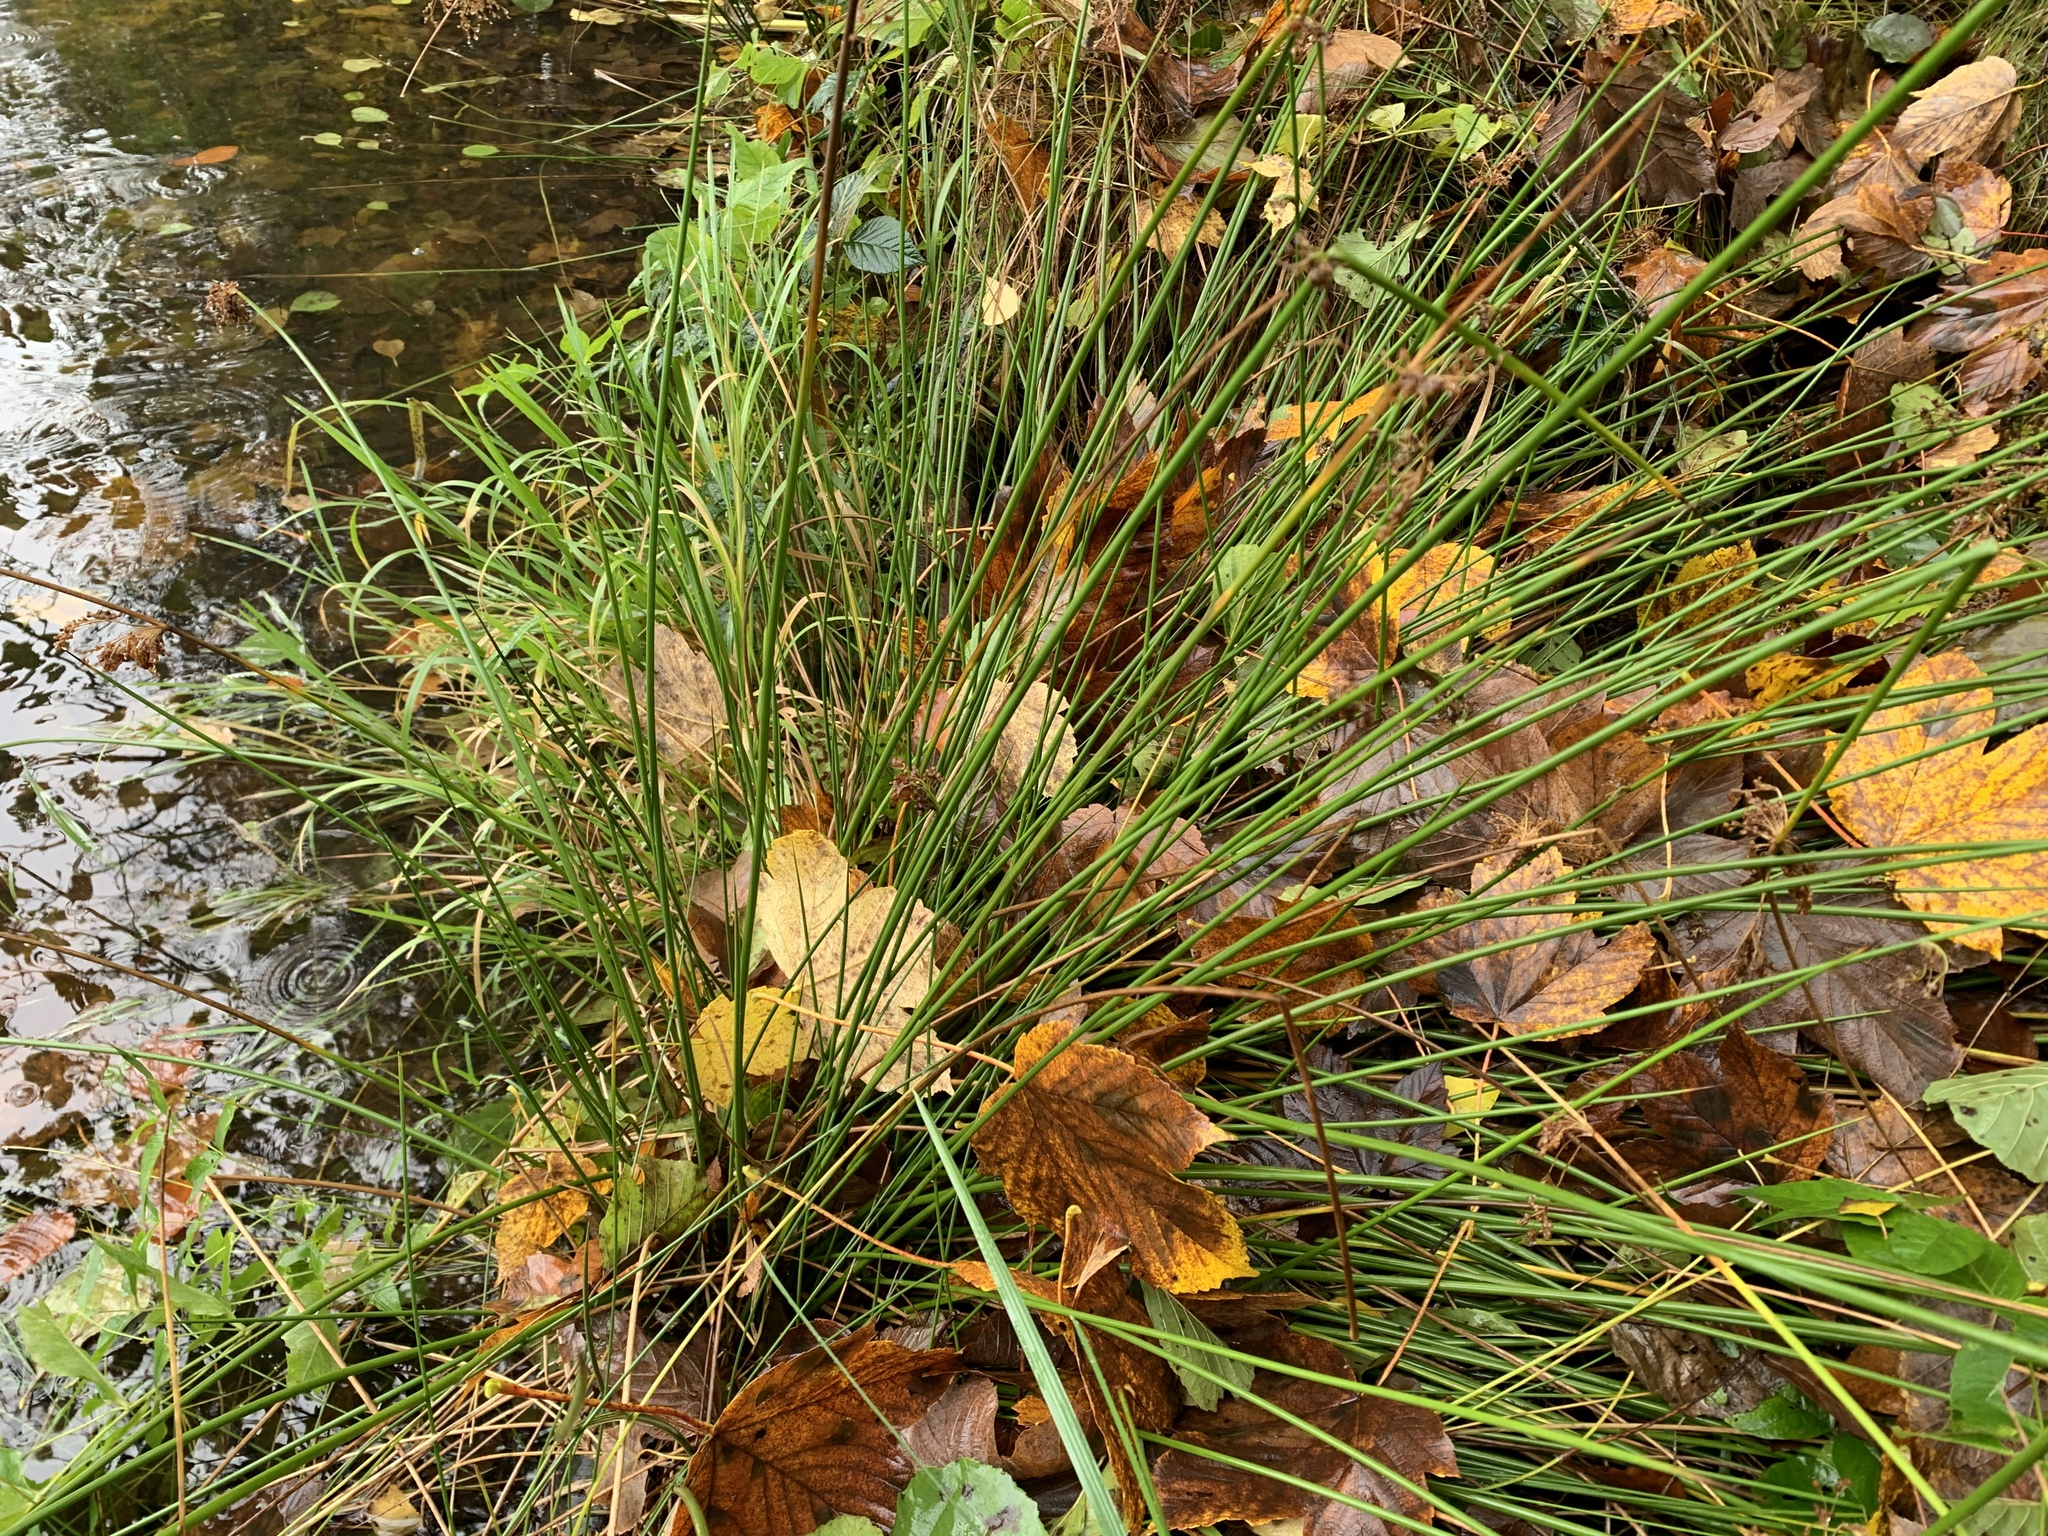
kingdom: Plantae
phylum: Tracheophyta
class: Liliopsida
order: Poales
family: Juncaceae
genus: Juncus
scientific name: Juncus effusus
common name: Soft rush
